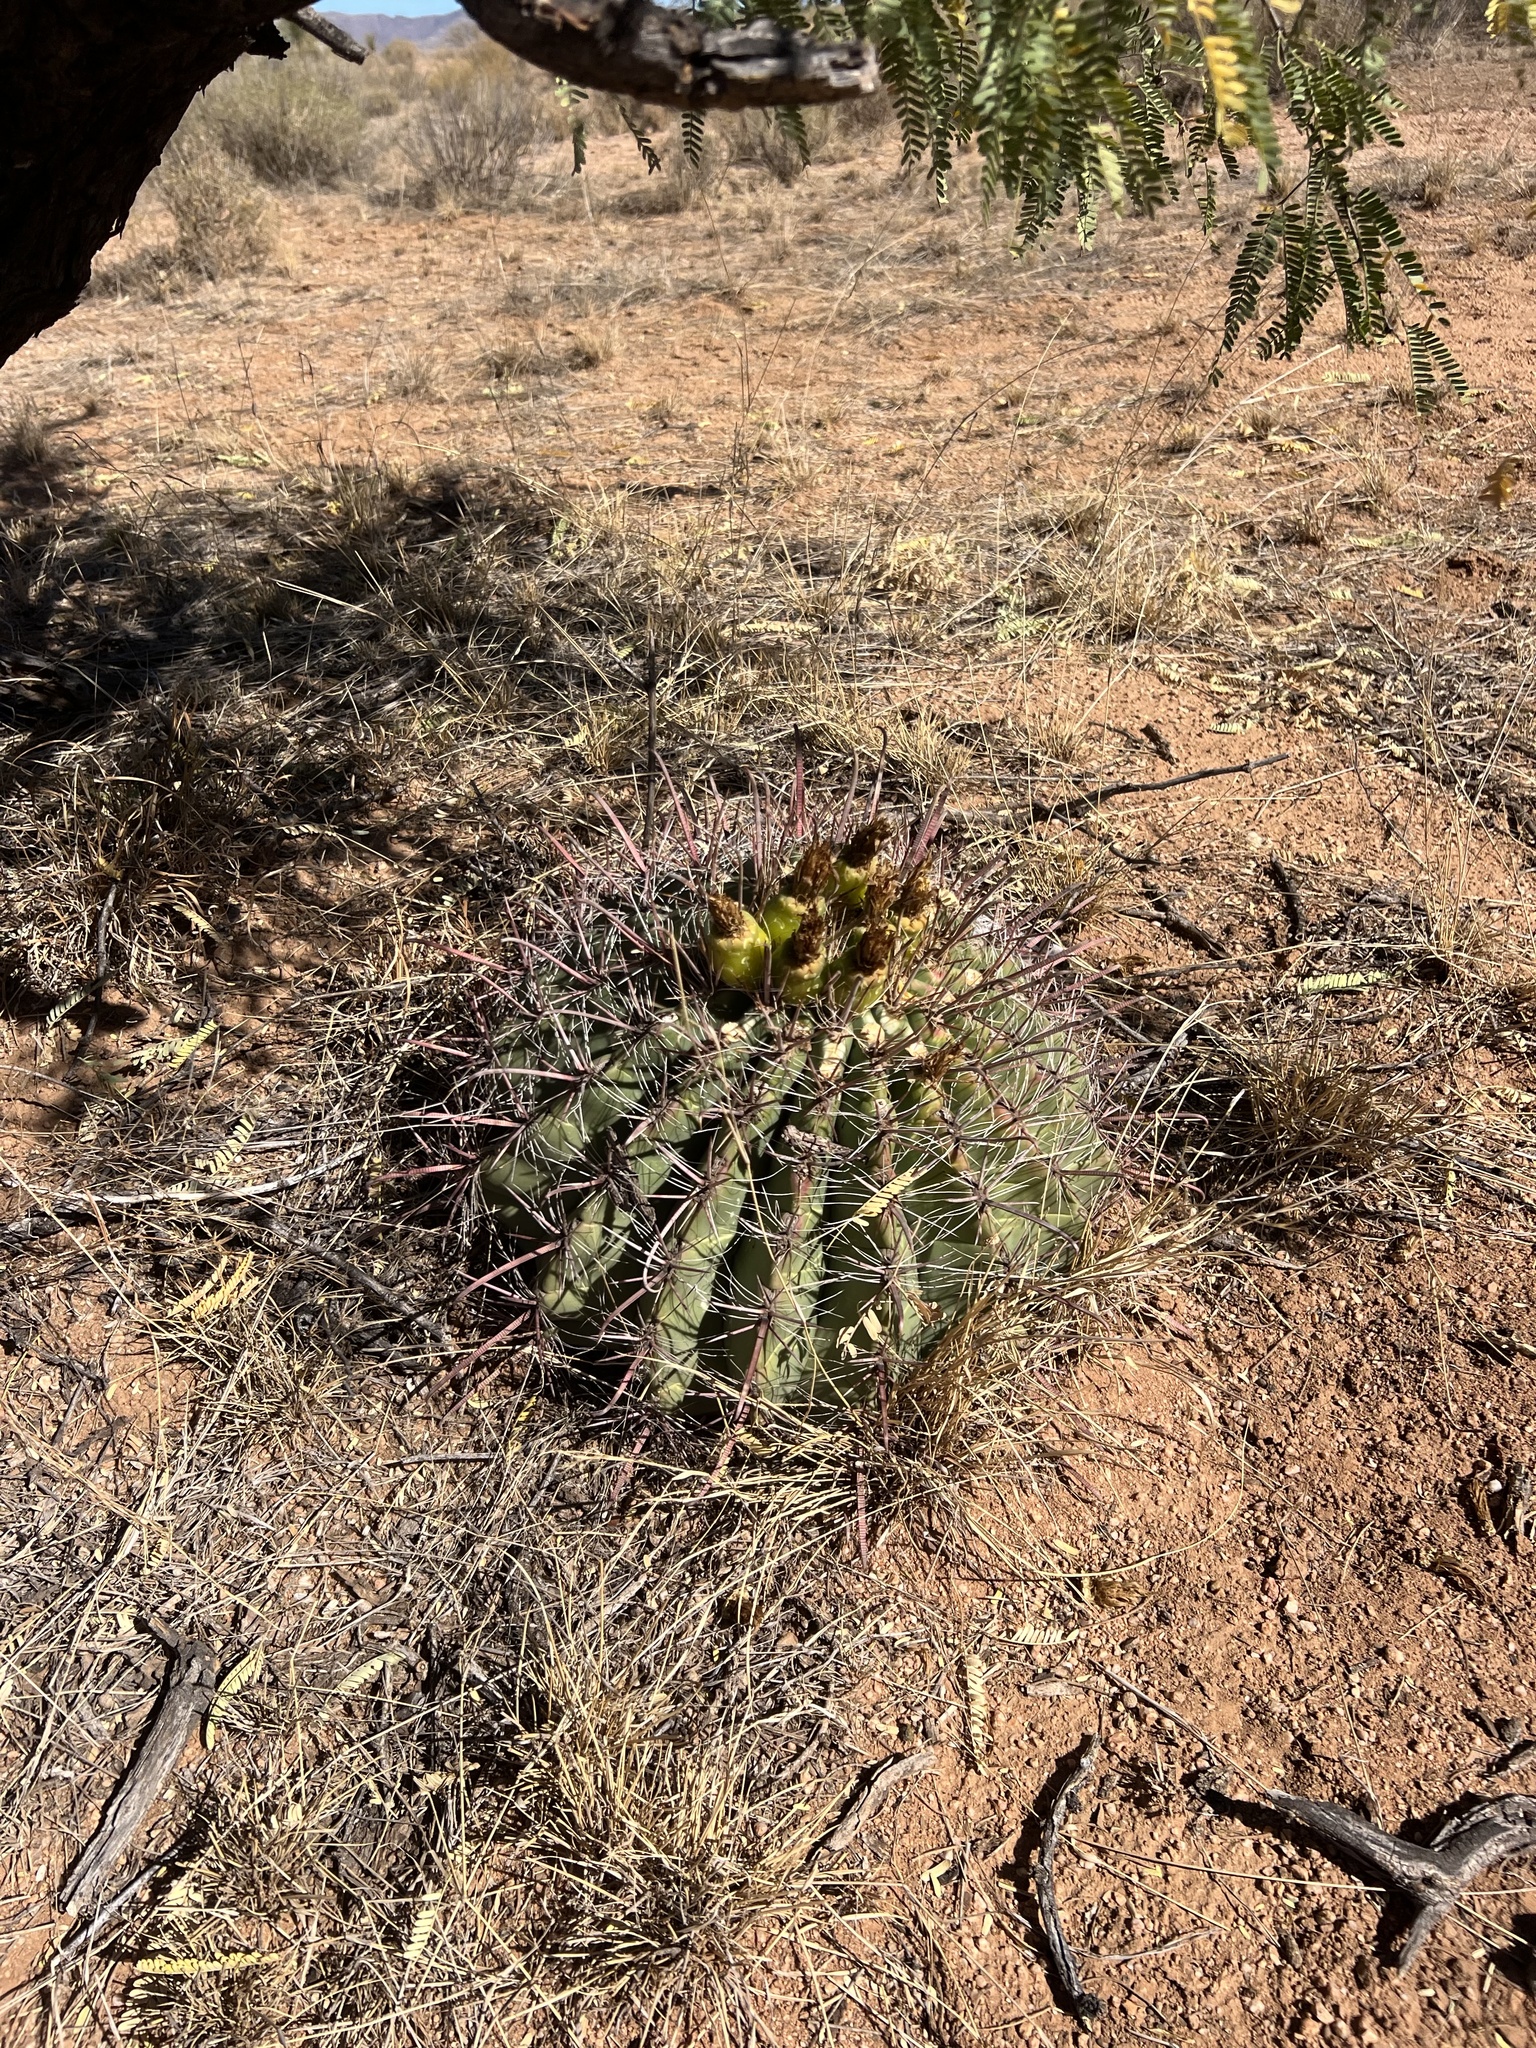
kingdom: Plantae
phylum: Tracheophyta
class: Magnoliopsida
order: Caryophyllales
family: Cactaceae
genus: Ferocactus
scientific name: Ferocactus wislizeni
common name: Candy barrel cactus
